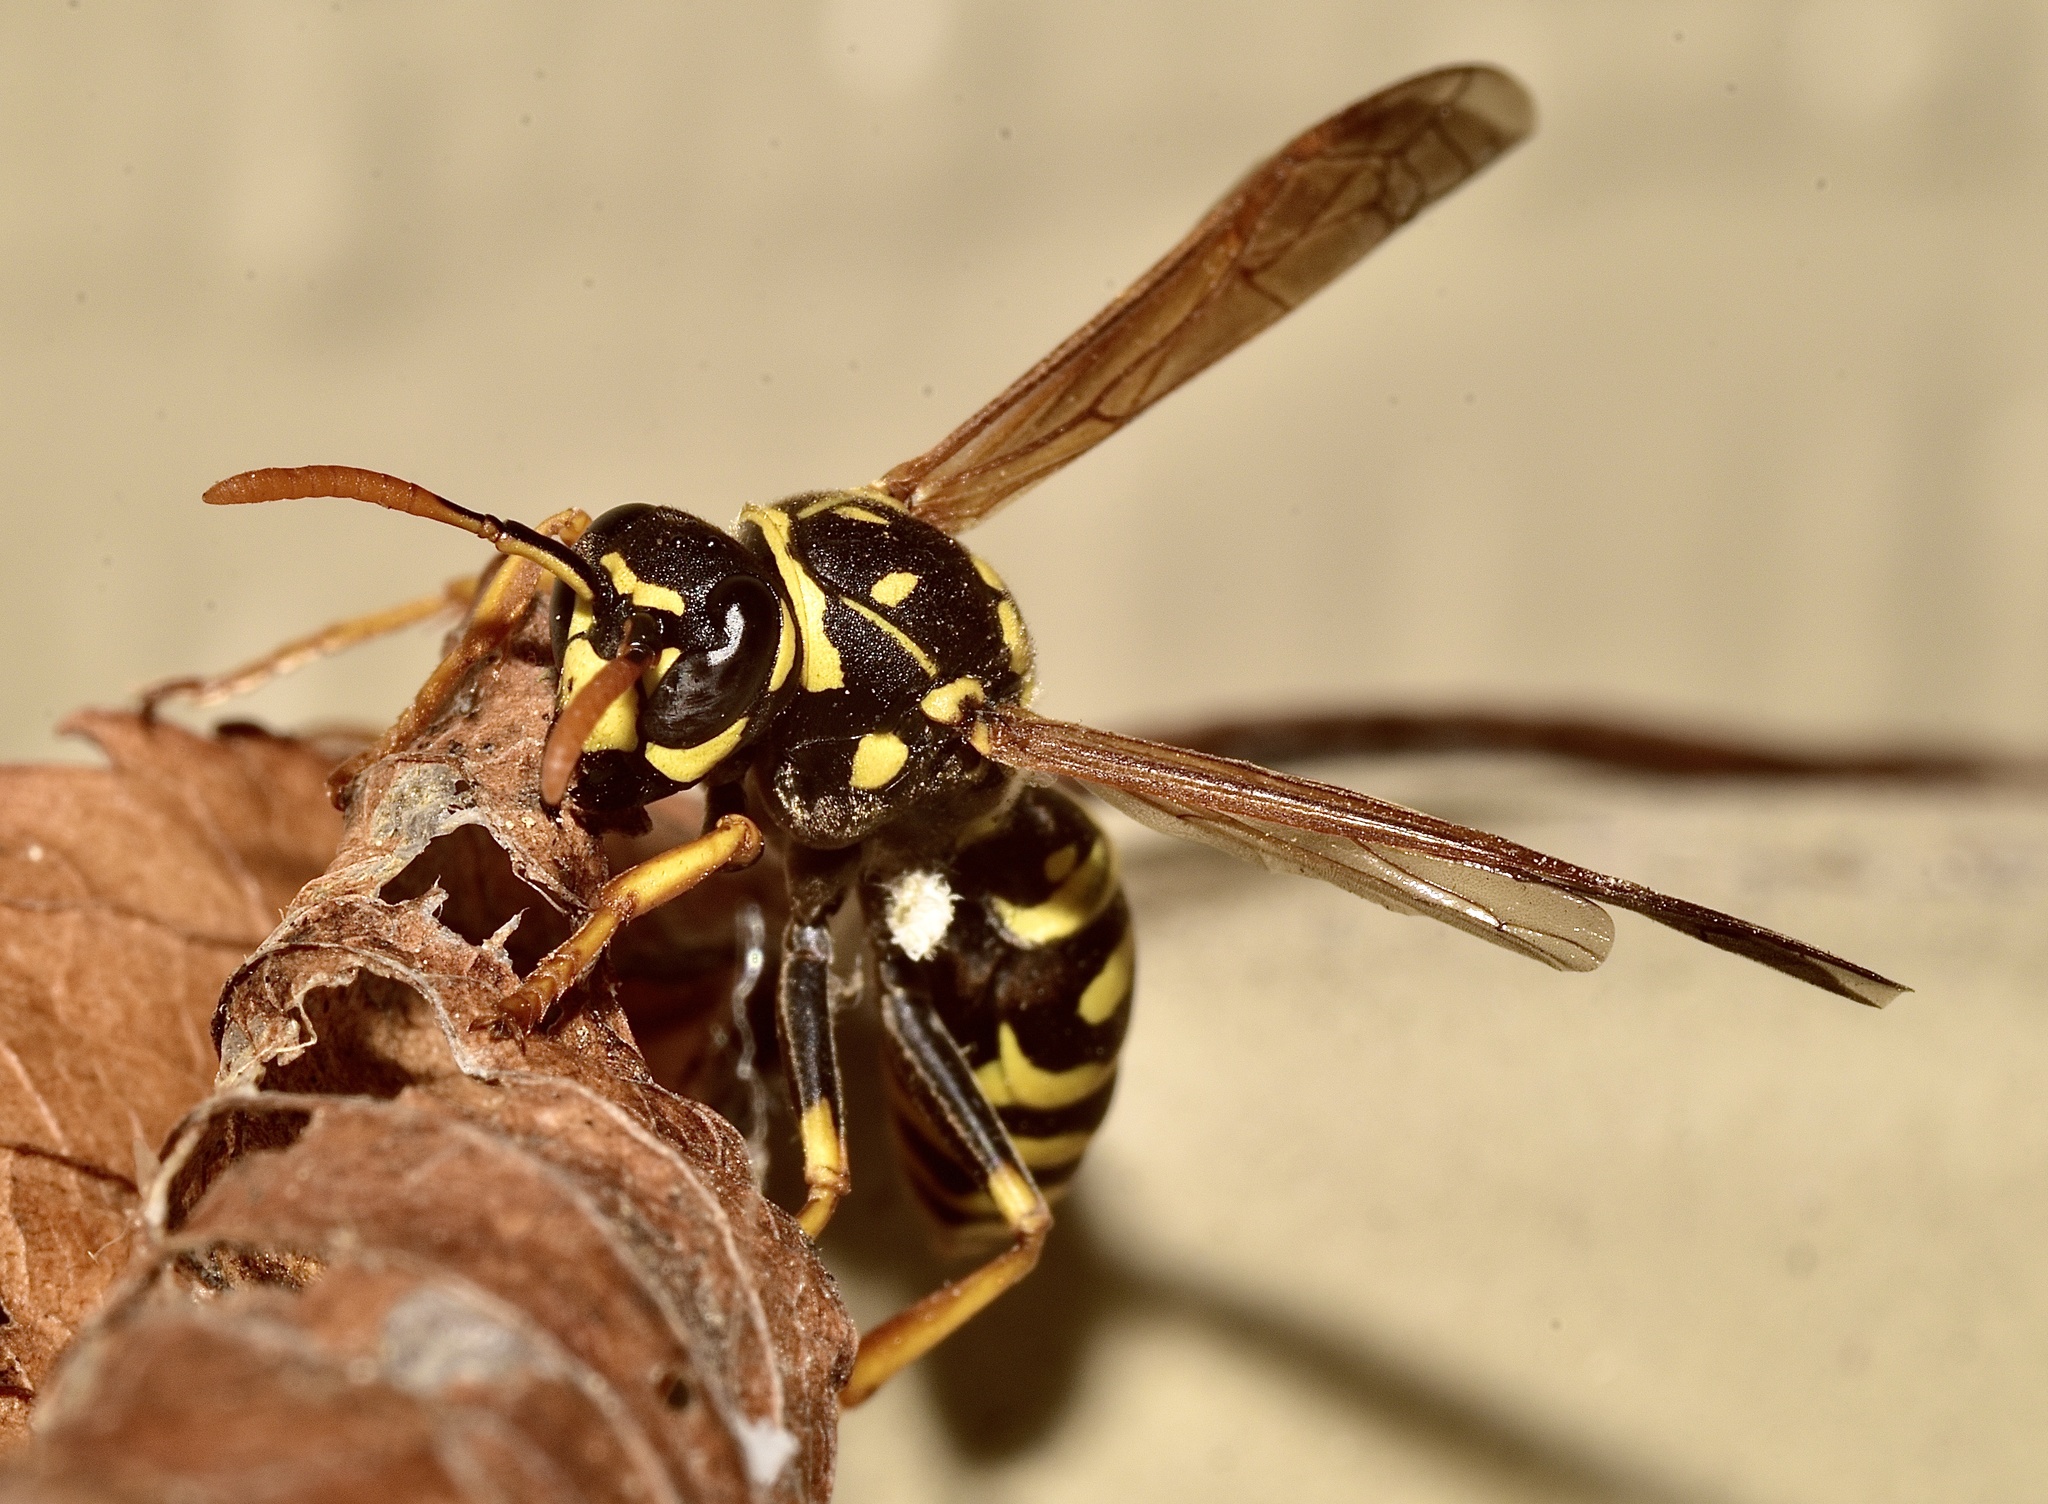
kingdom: Animalia
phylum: Arthropoda
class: Insecta
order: Hymenoptera
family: Eumenidae
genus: Polistes
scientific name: Polistes dominula
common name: Paper wasp
